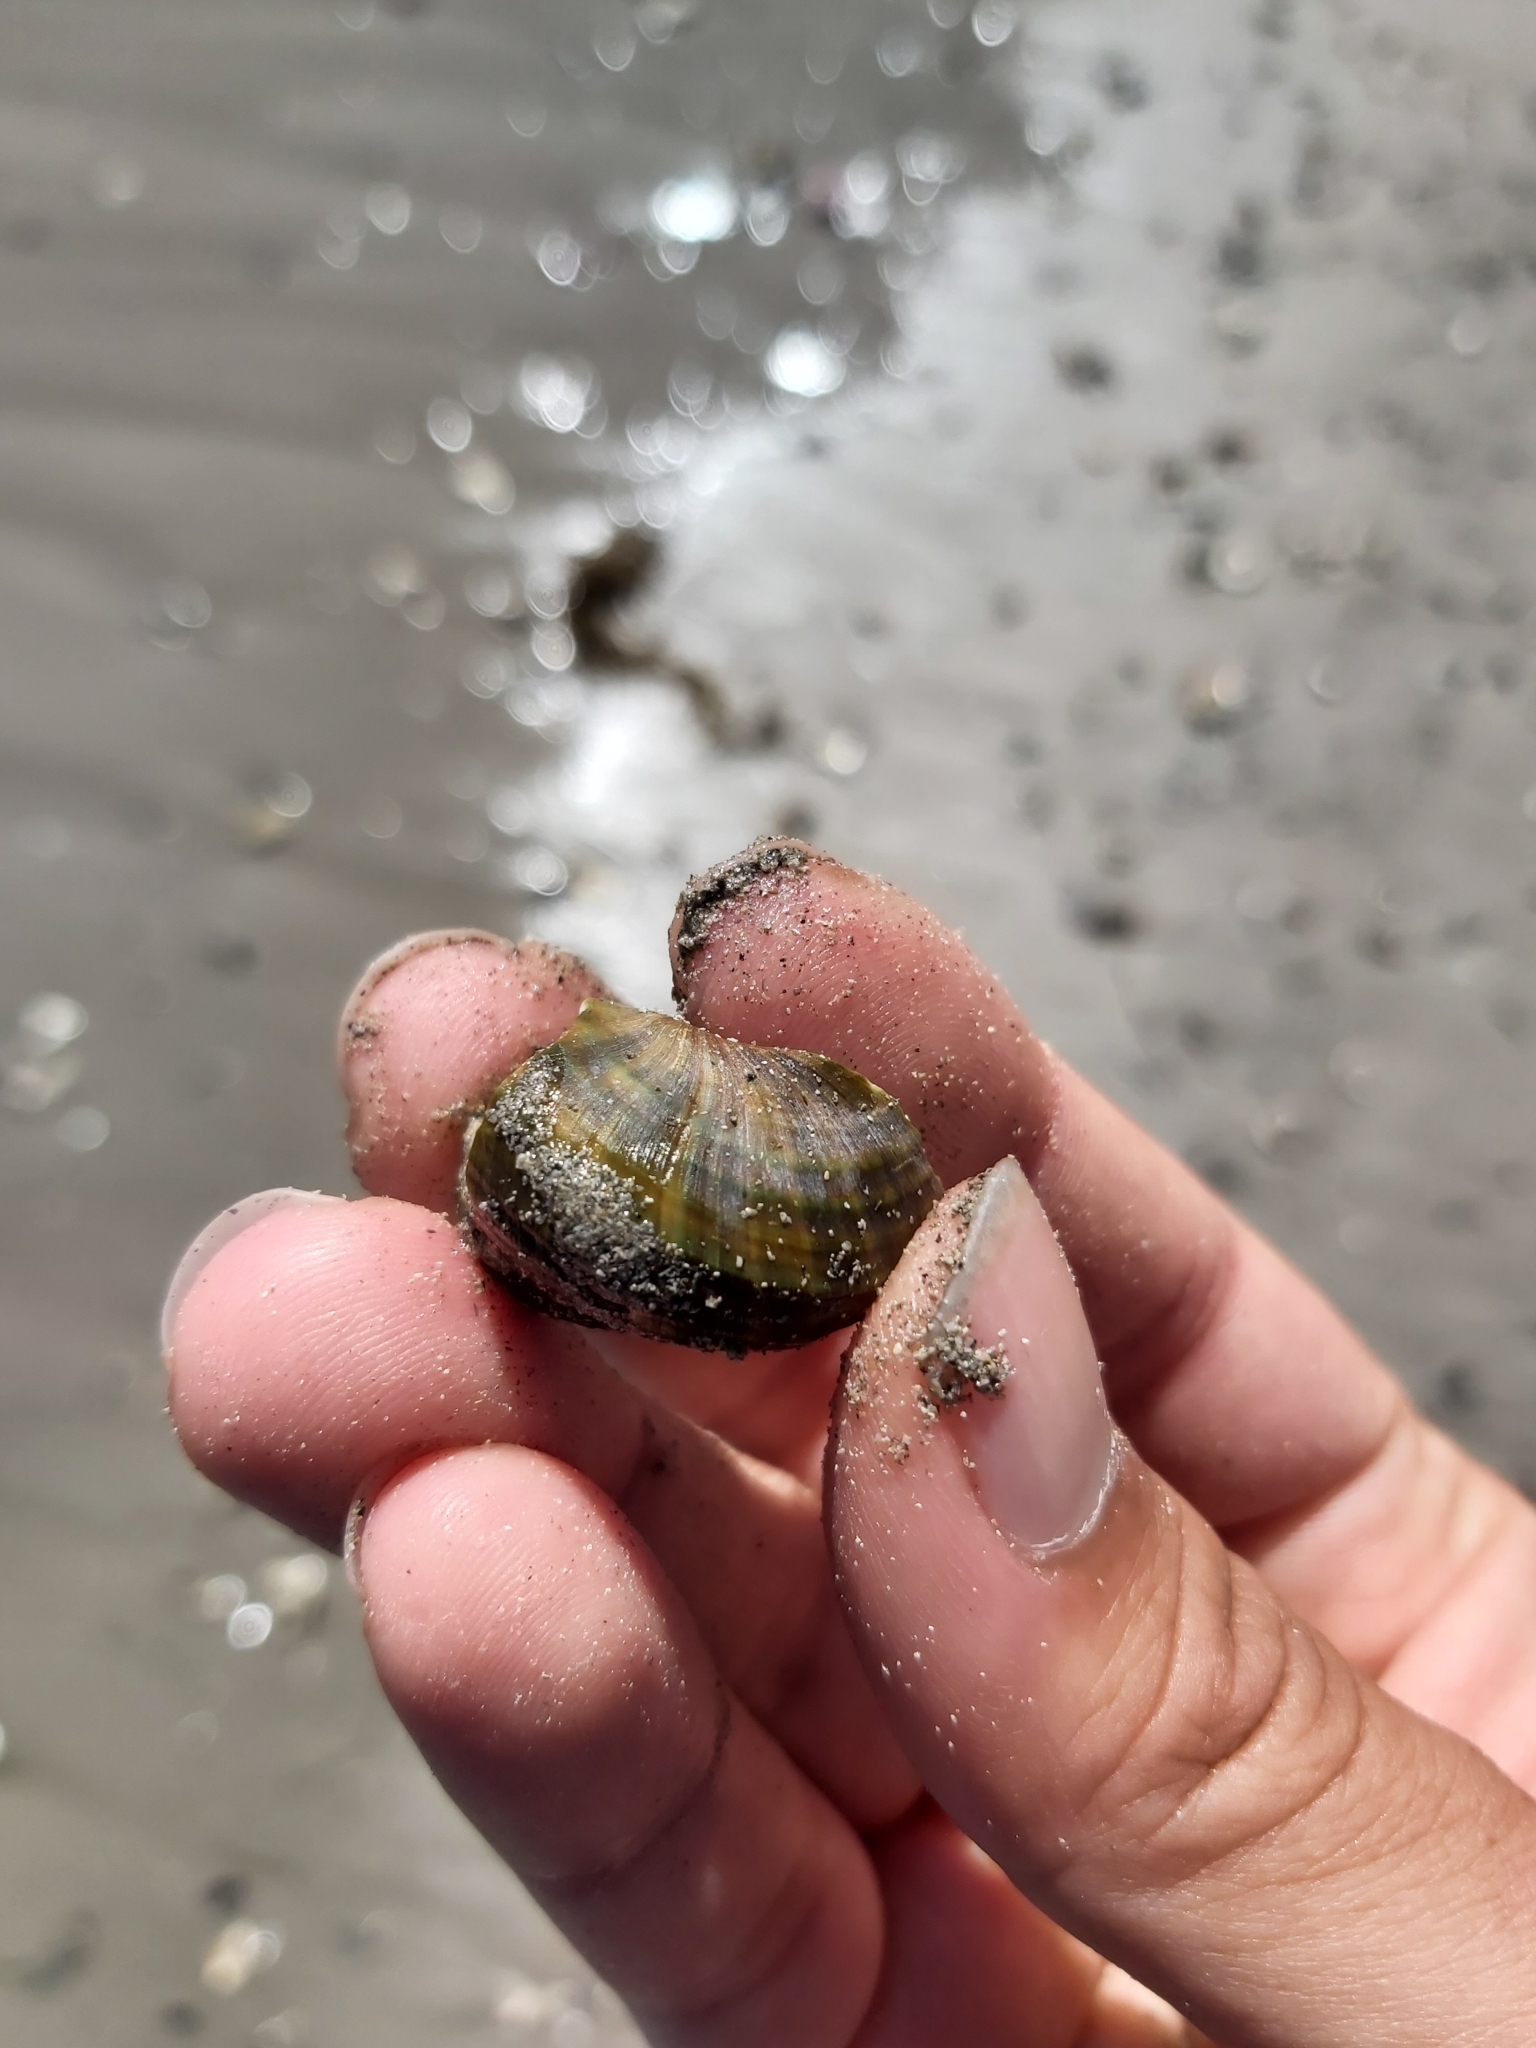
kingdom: Animalia
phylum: Mollusca
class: Gastropoda
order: Trochida
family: Turbinidae
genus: Lunella
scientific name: Lunella undulata
